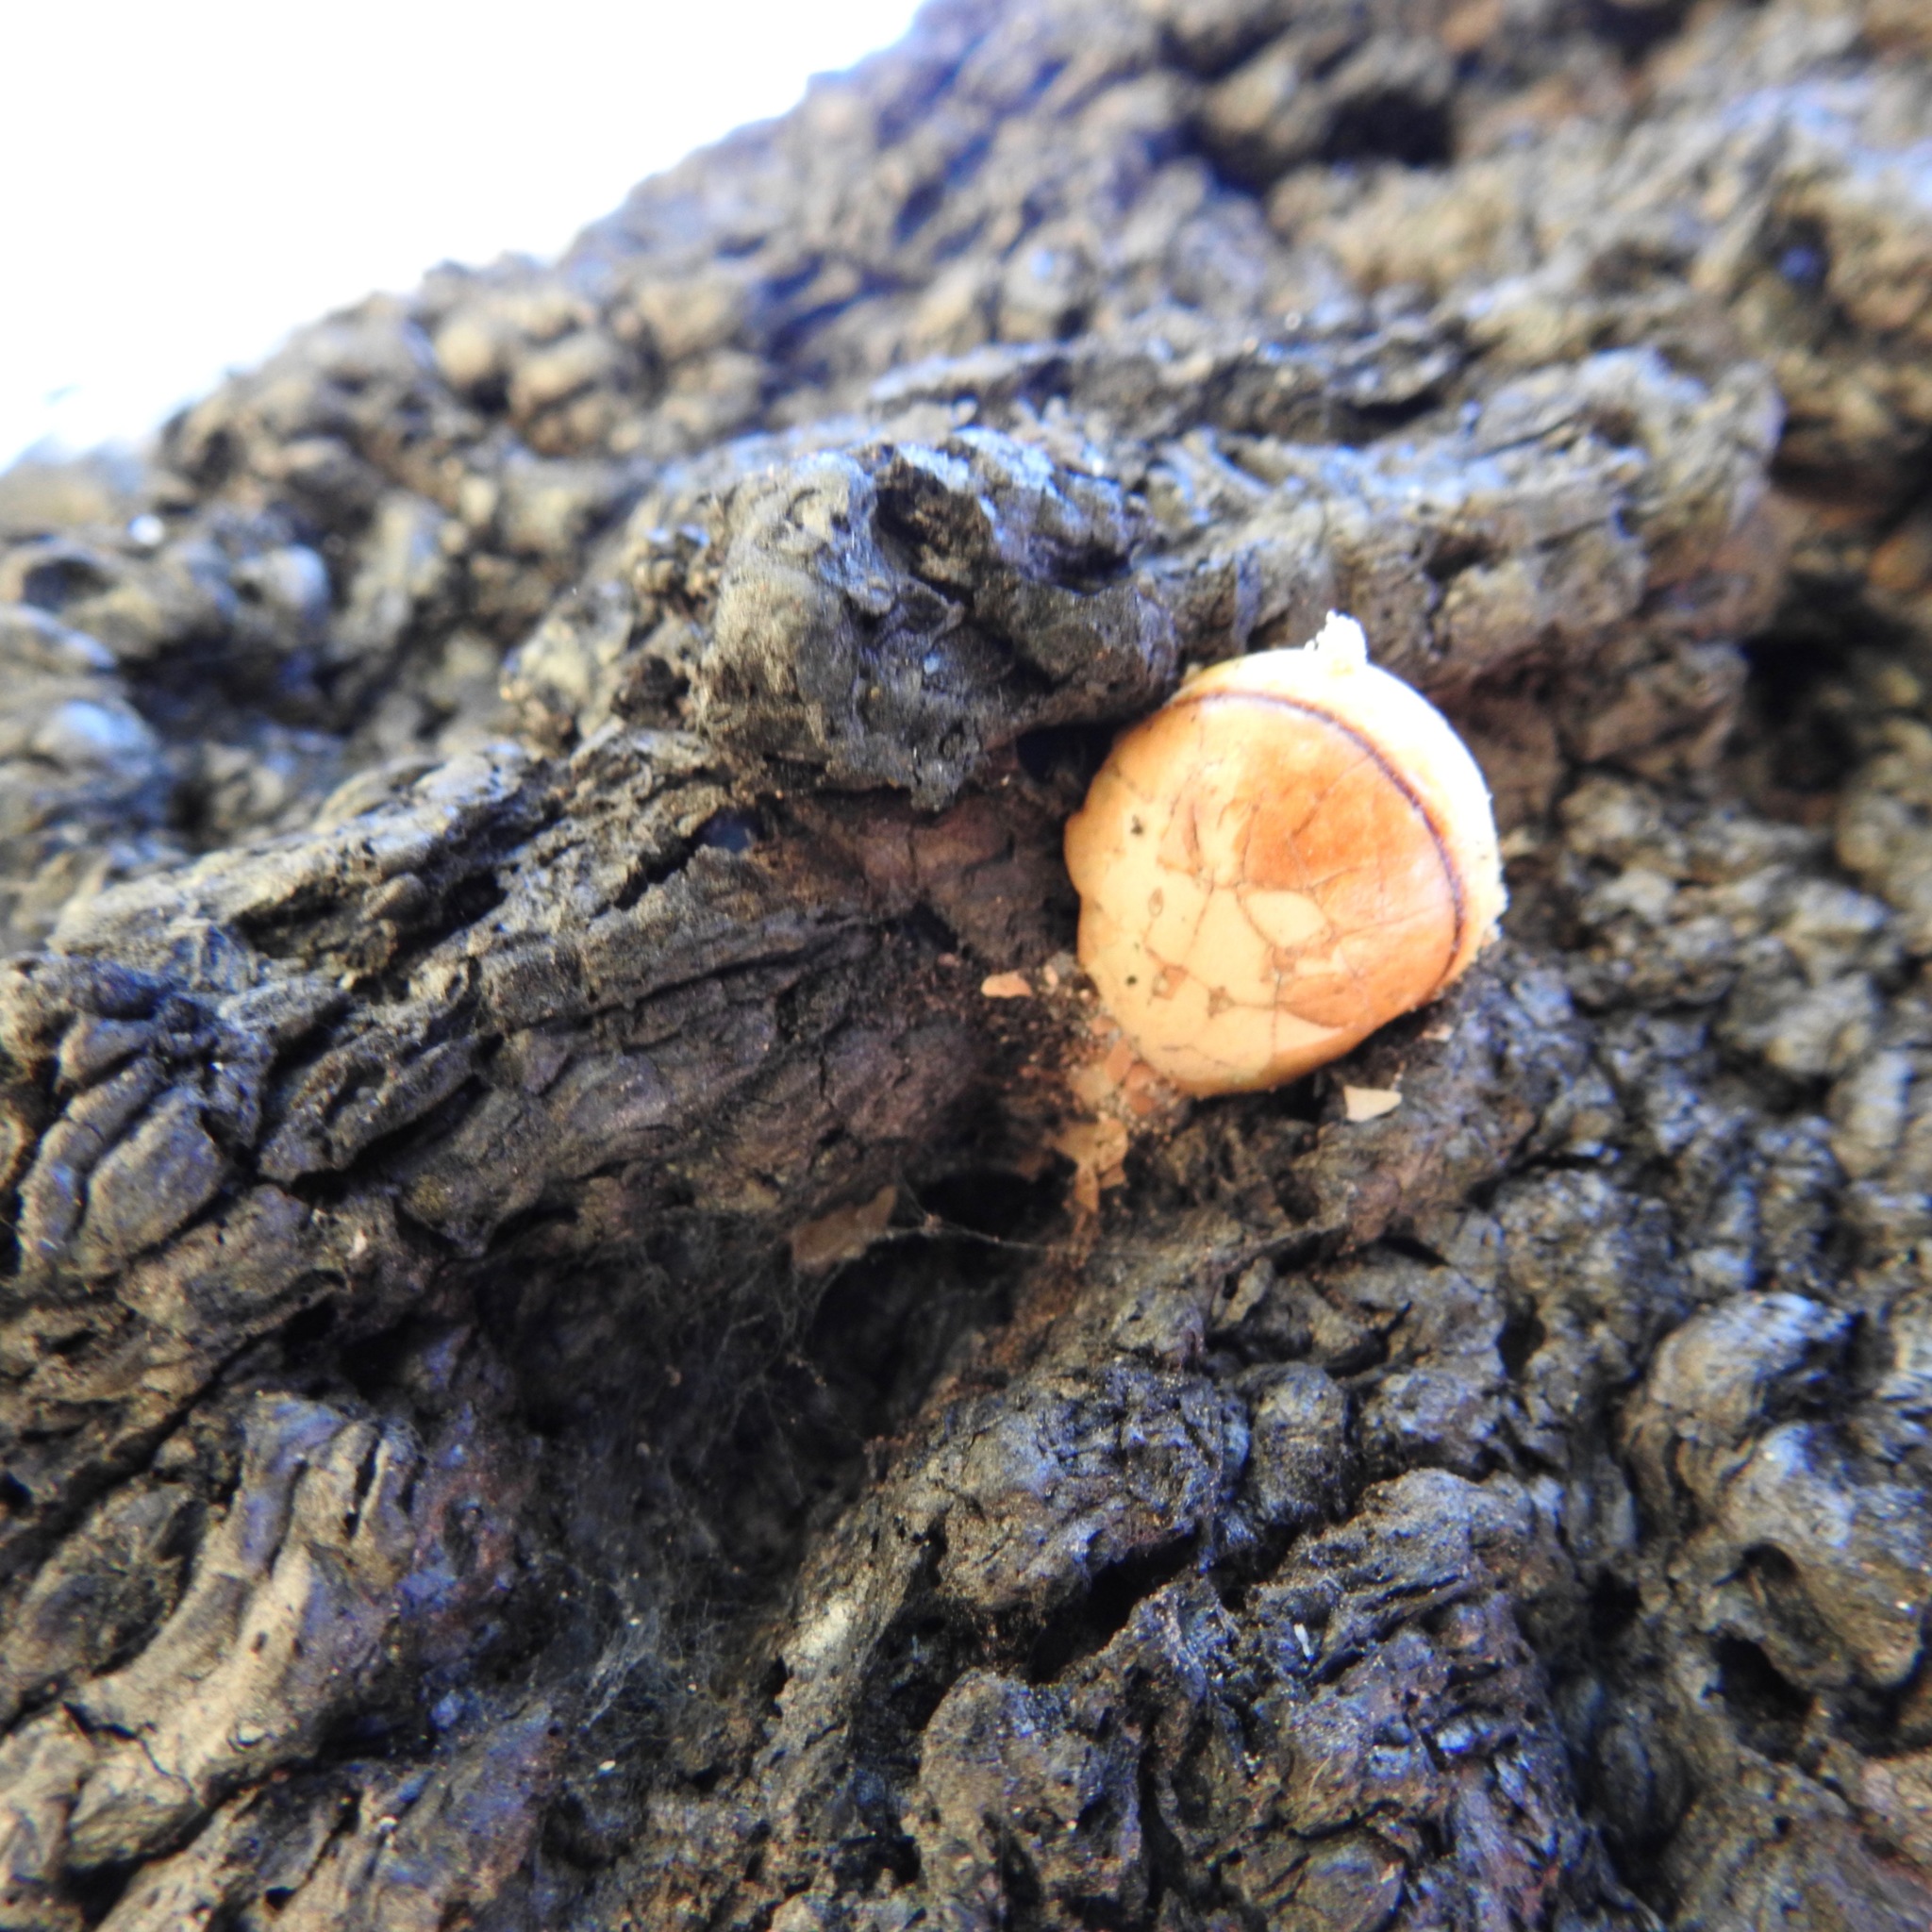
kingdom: Fungi
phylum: Basidiomycota
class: Agaricomycetes
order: Polyporales
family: Polyporaceae
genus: Cryptoporus
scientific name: Cryptoporus volvatus
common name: Veiled polypore
